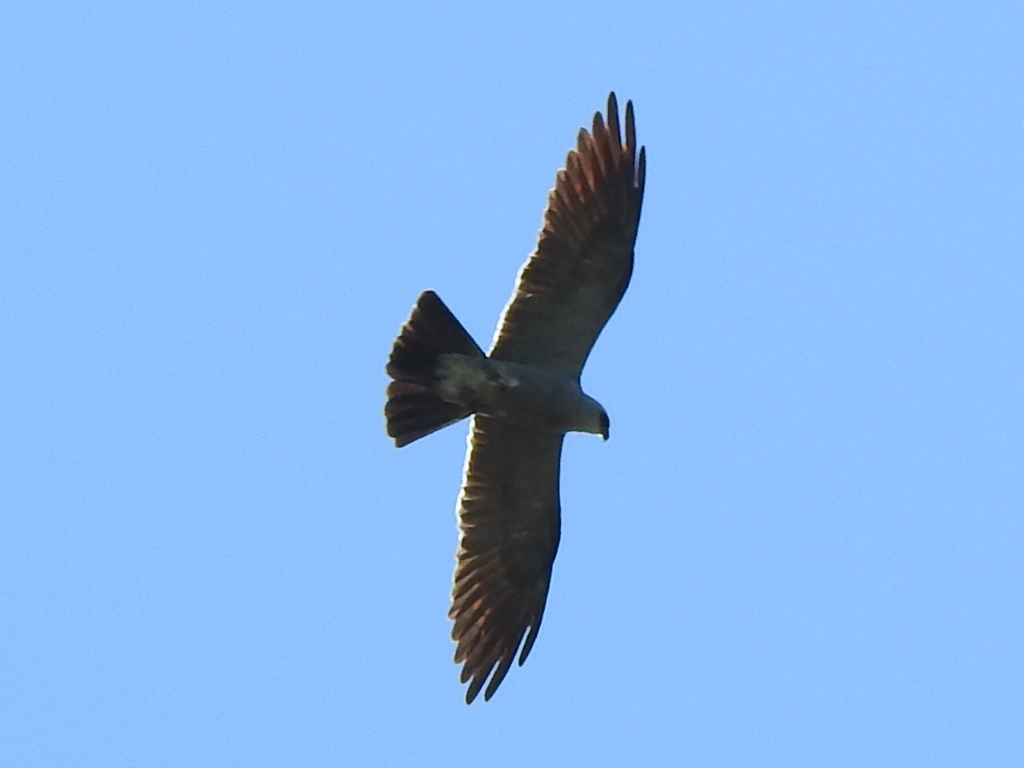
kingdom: Animalia
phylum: Chordata
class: Aves
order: Accipitriformes
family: Accipitridae
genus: Ictinia
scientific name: Ictinia mississippiensis
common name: Mississippi kite
